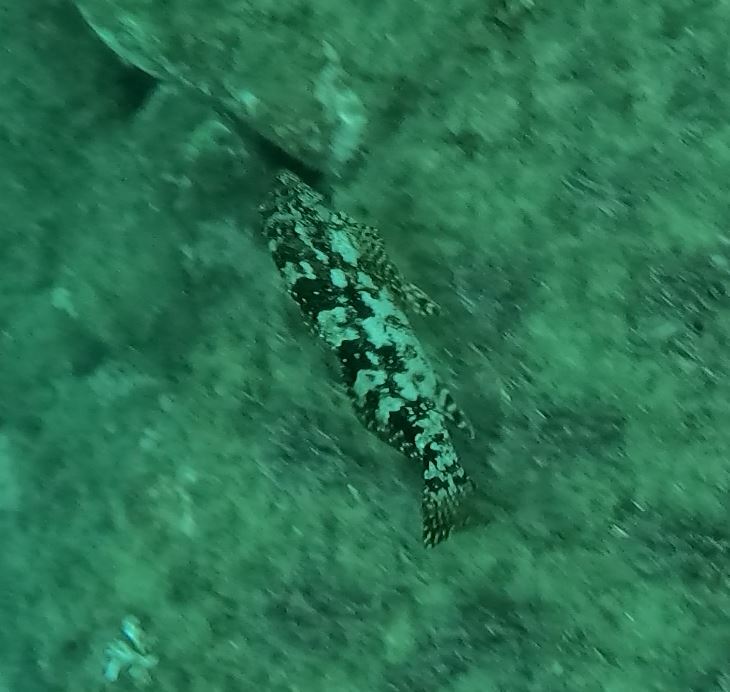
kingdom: Animalia
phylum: Chordata
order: Perciformes
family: Chironemidae
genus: Chironemus
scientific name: Chironemus marmoratus
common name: Kelpfish
